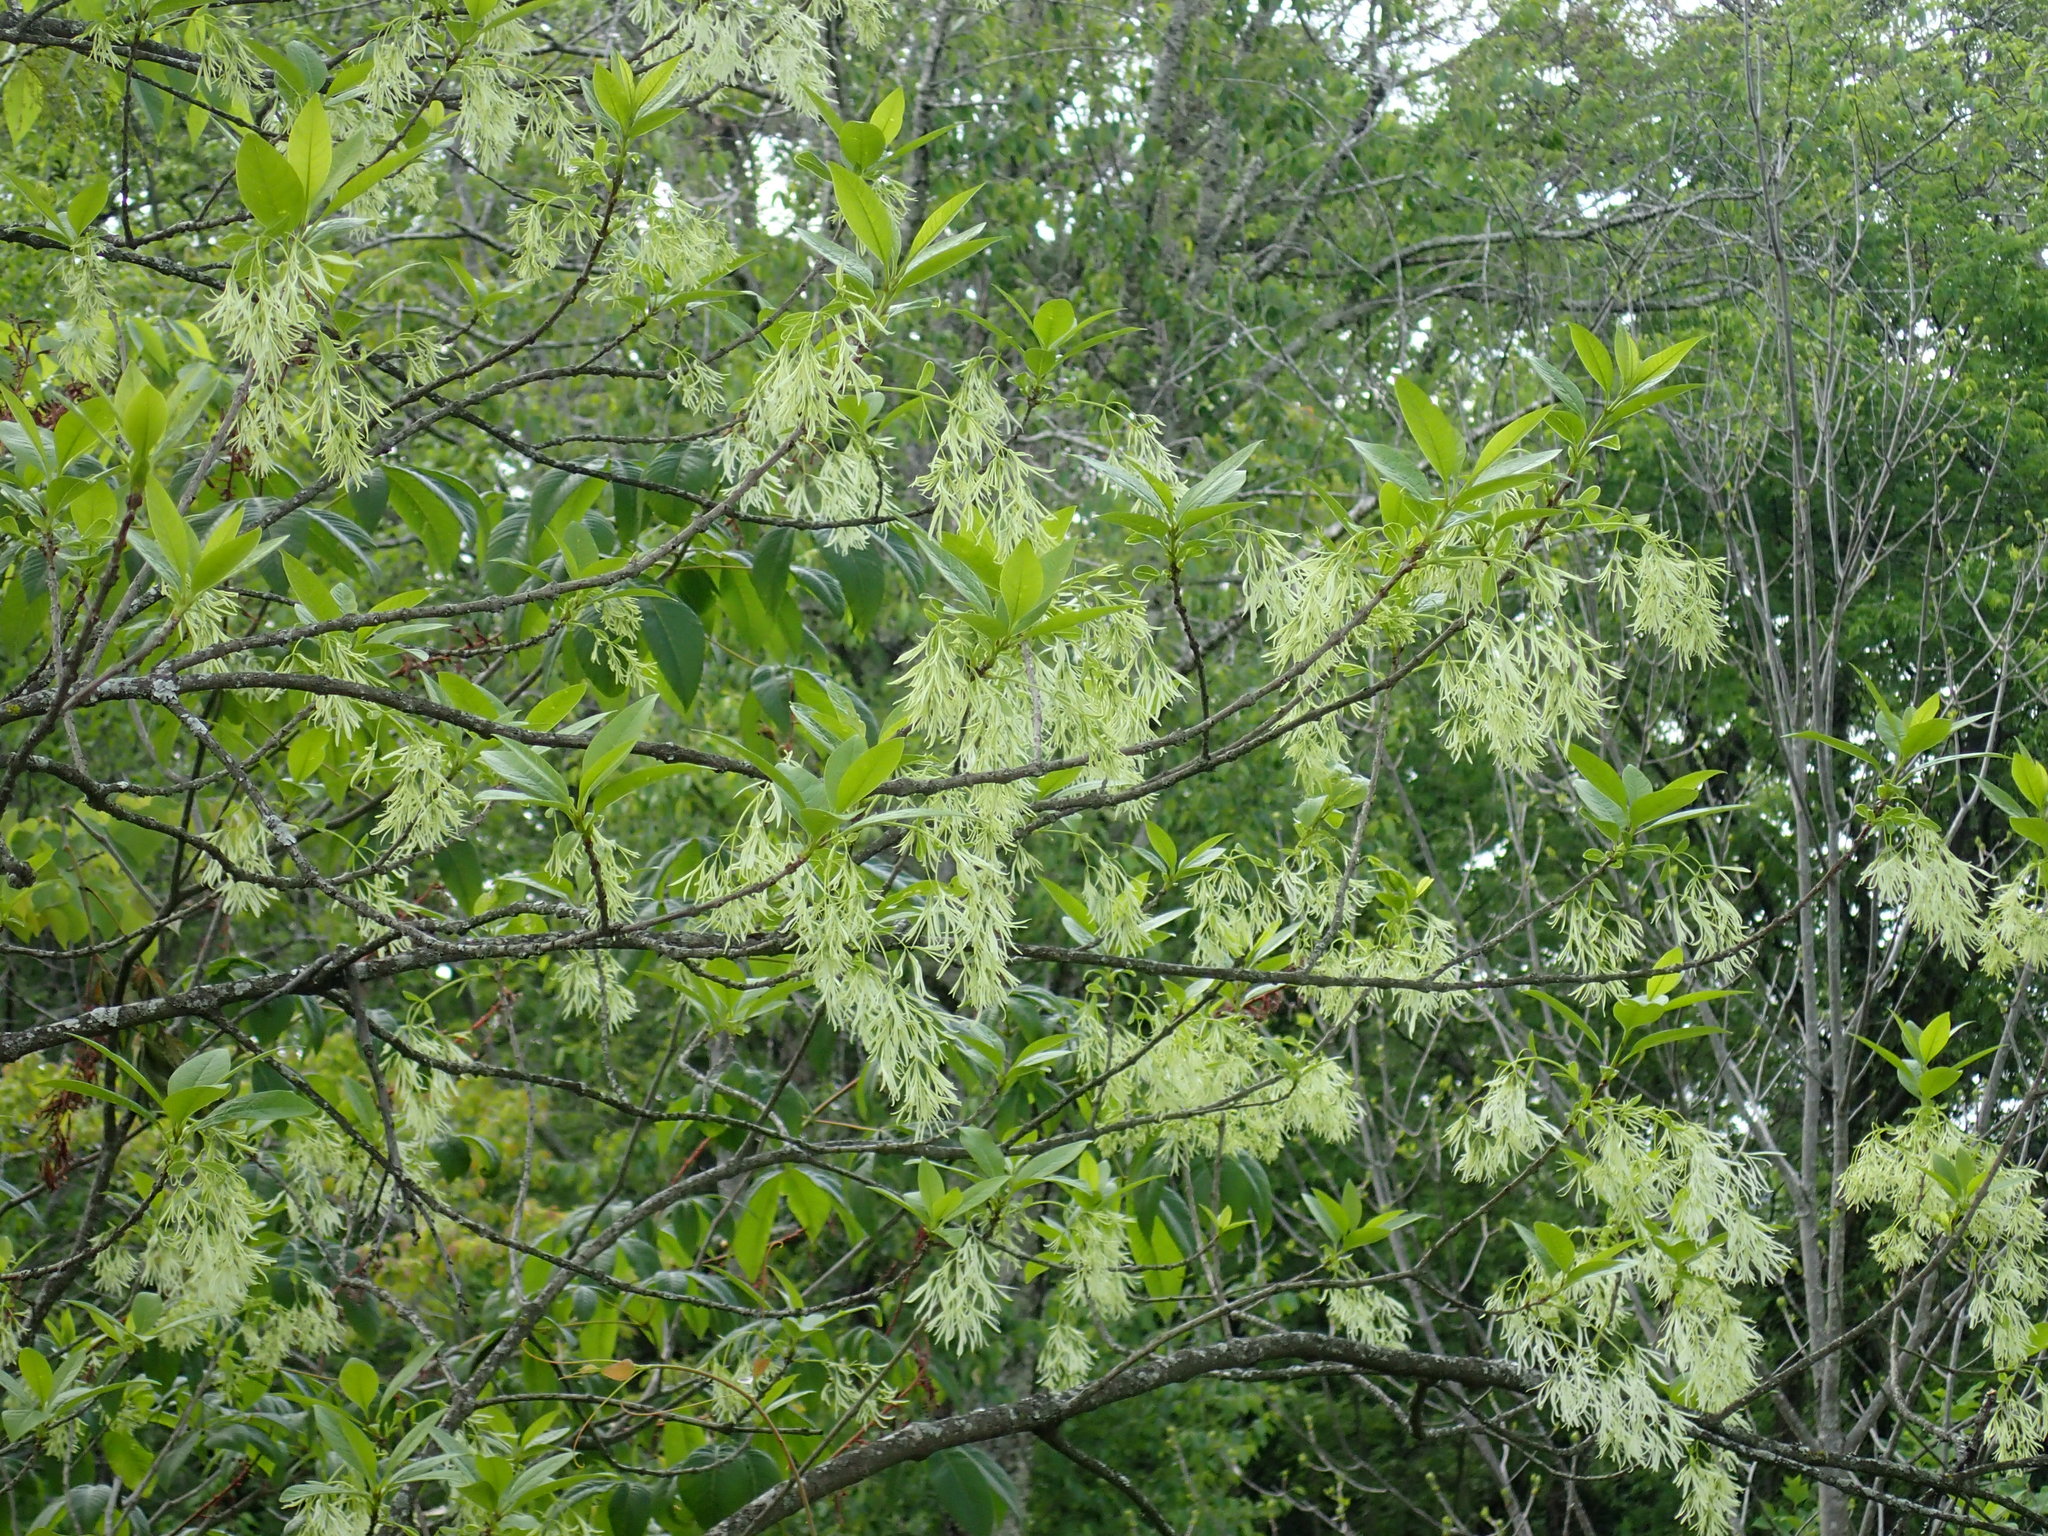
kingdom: Plantae
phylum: Tracheophyta
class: Magnoliopsida
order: Lamiales
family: Oleaceae
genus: Chionanthus
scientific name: Chionanthus virginicus
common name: American fringetree
